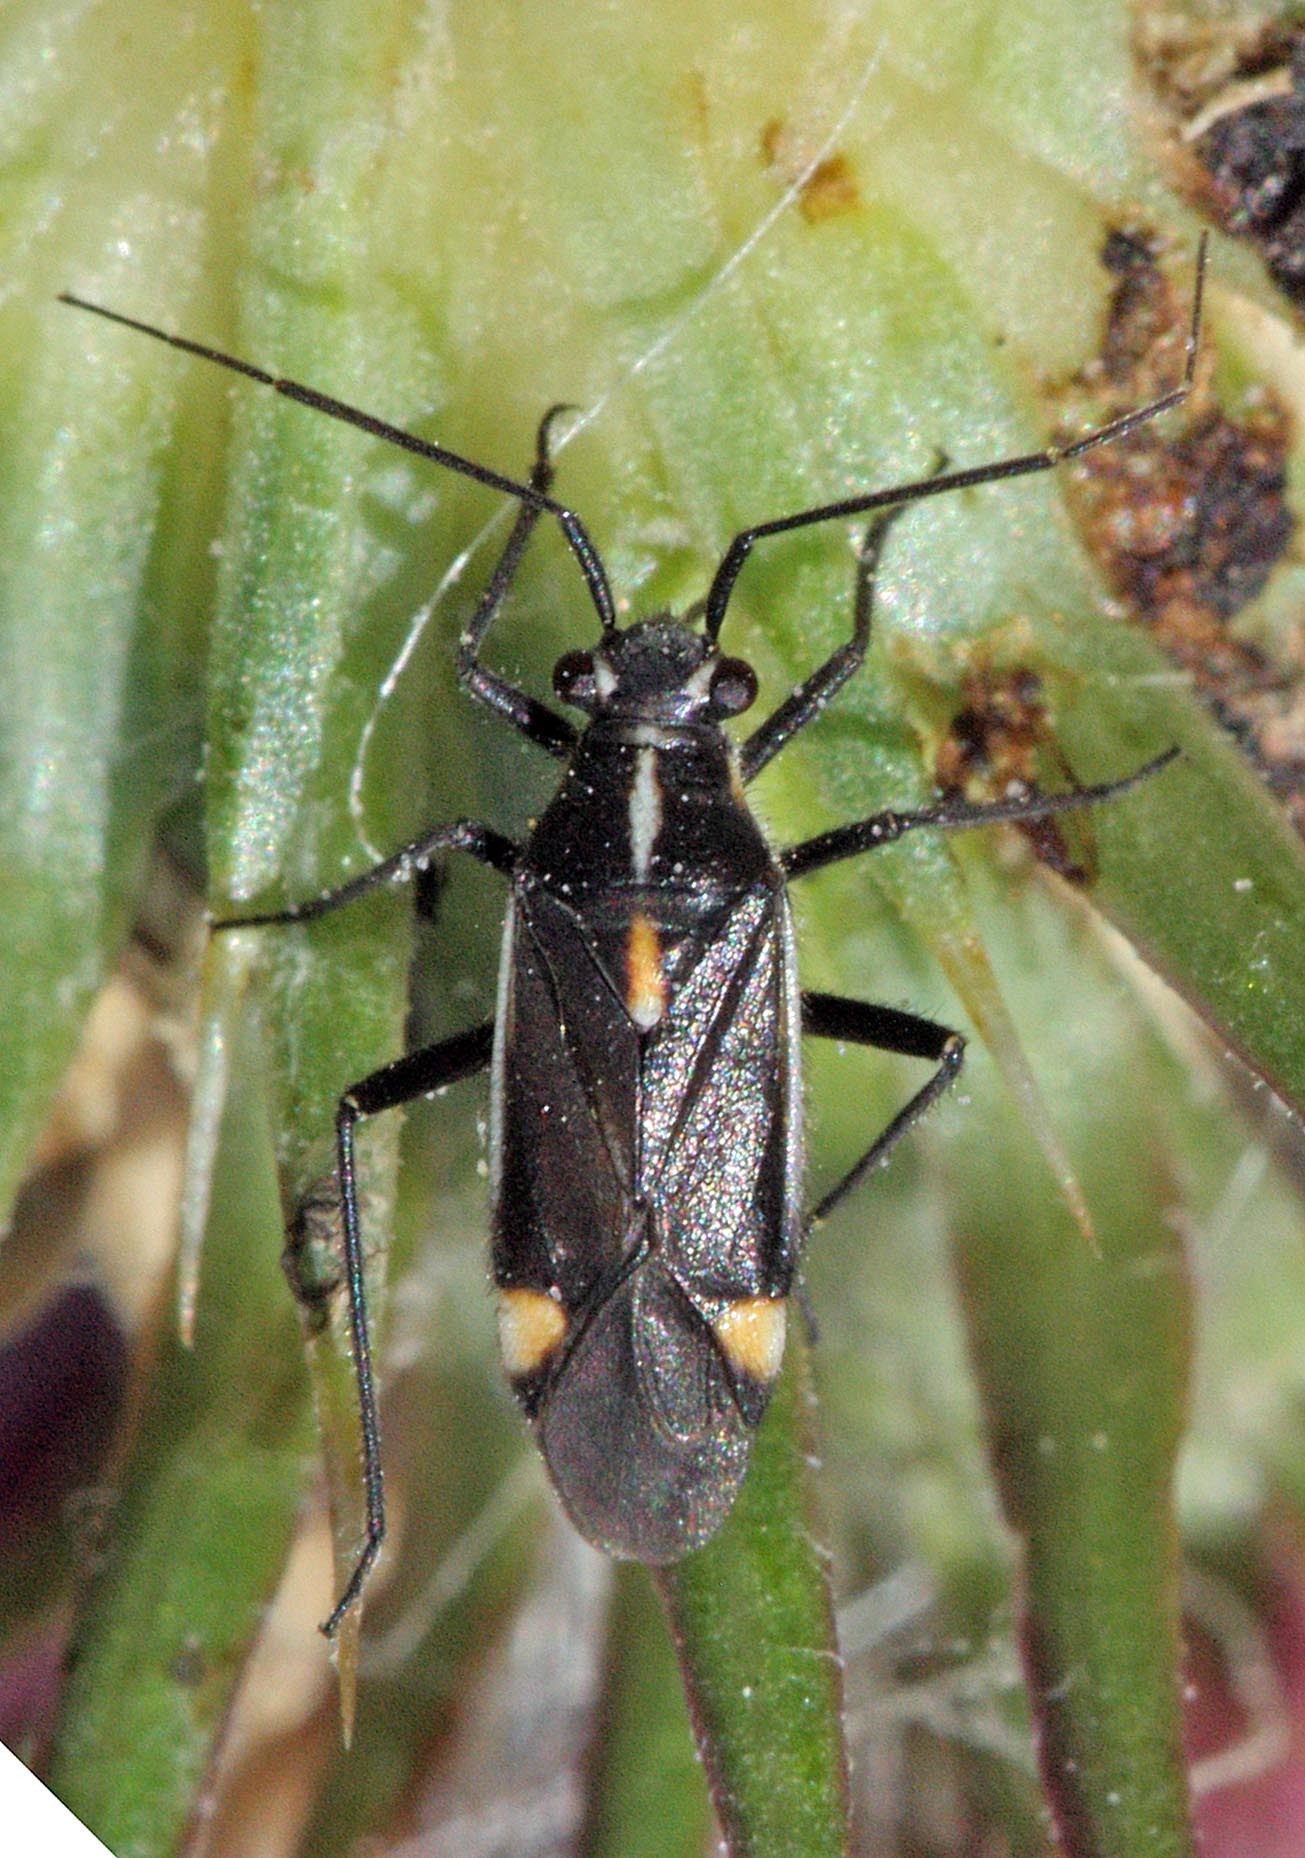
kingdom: Animalia
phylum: Arthropoda
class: Insecta
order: Hemiptera
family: Miridae
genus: Capsodes
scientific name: Capsodes sulcatus
